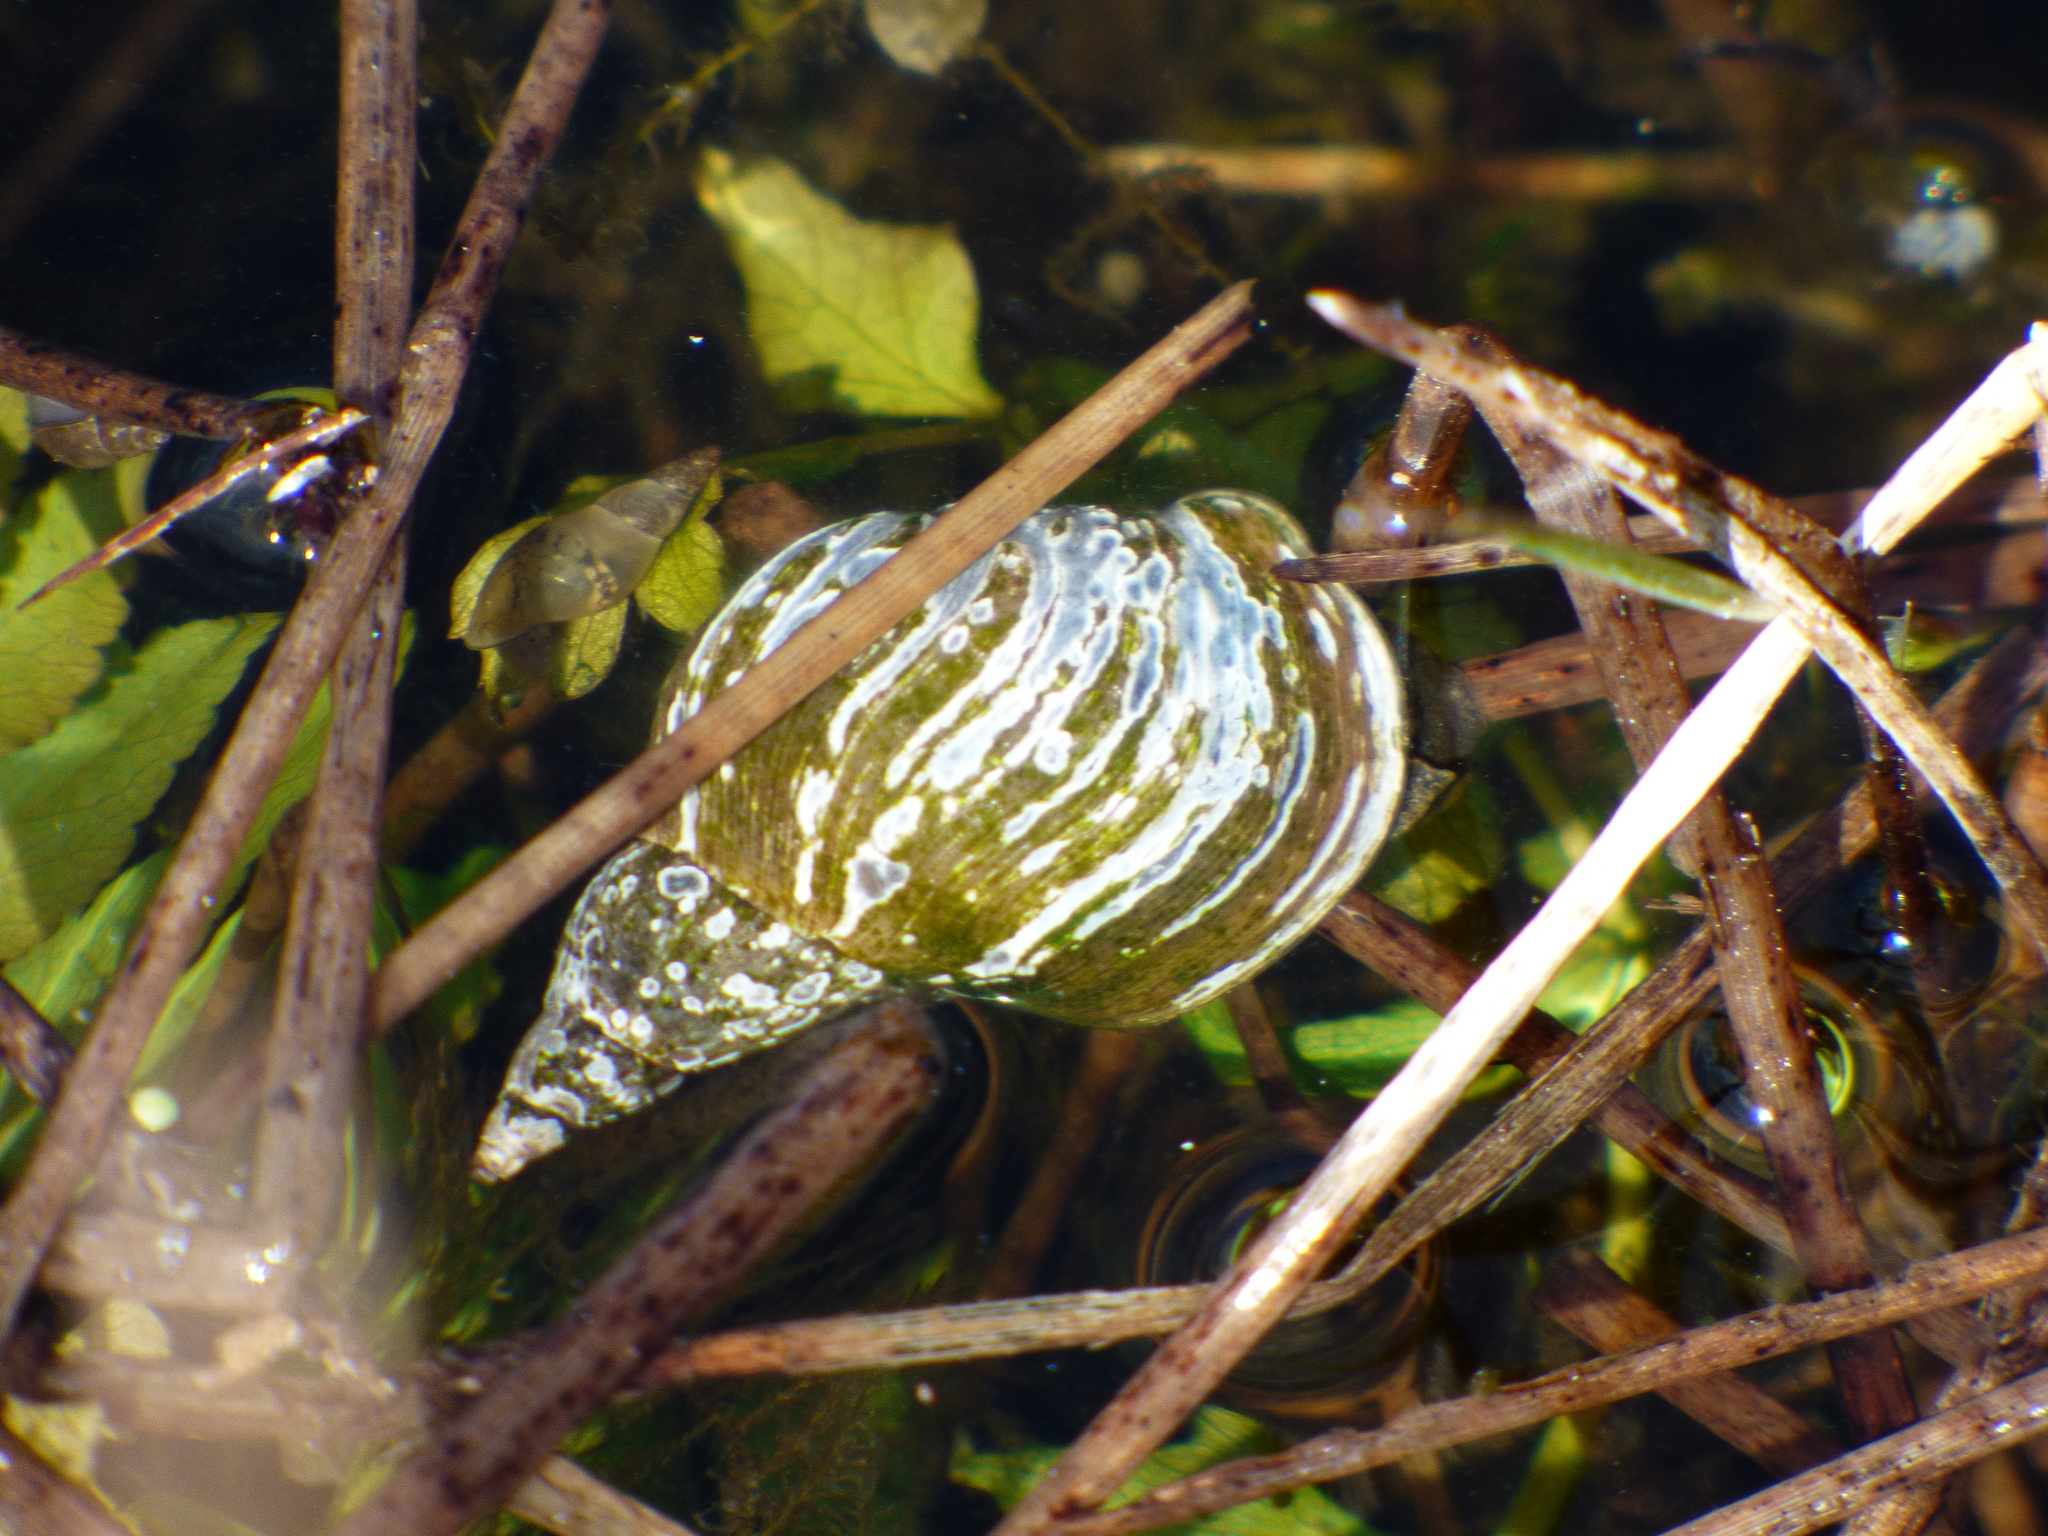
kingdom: Animalia
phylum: Mollusca
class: Gastropoda
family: Lymnaeidae
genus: Lymnaea
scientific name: Lymnaea stagnalis
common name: Great pond snail
